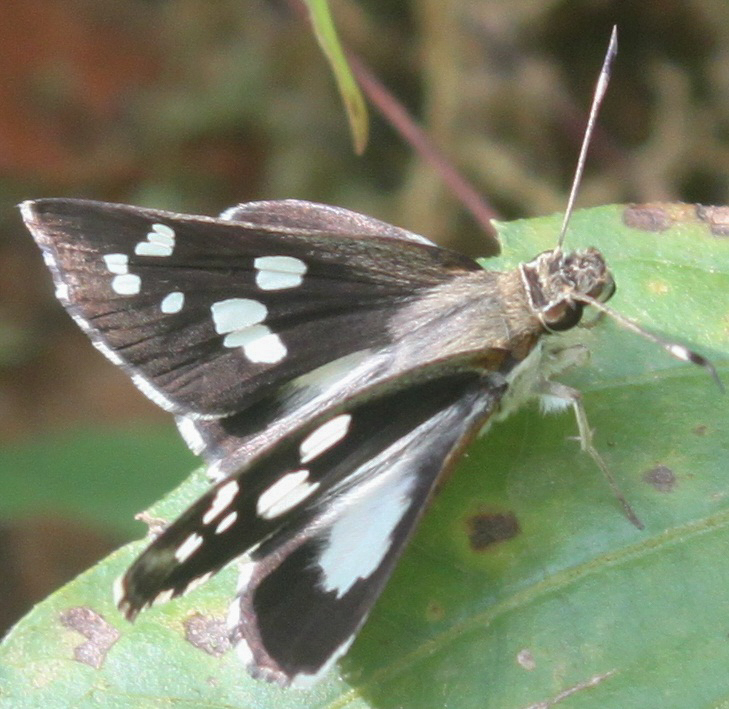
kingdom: Animalia
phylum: Arthropoda
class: Insecta
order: Lepidoptera
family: Hesperiidae
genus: Udaspes
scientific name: Udaspes folus
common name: Grass demon
